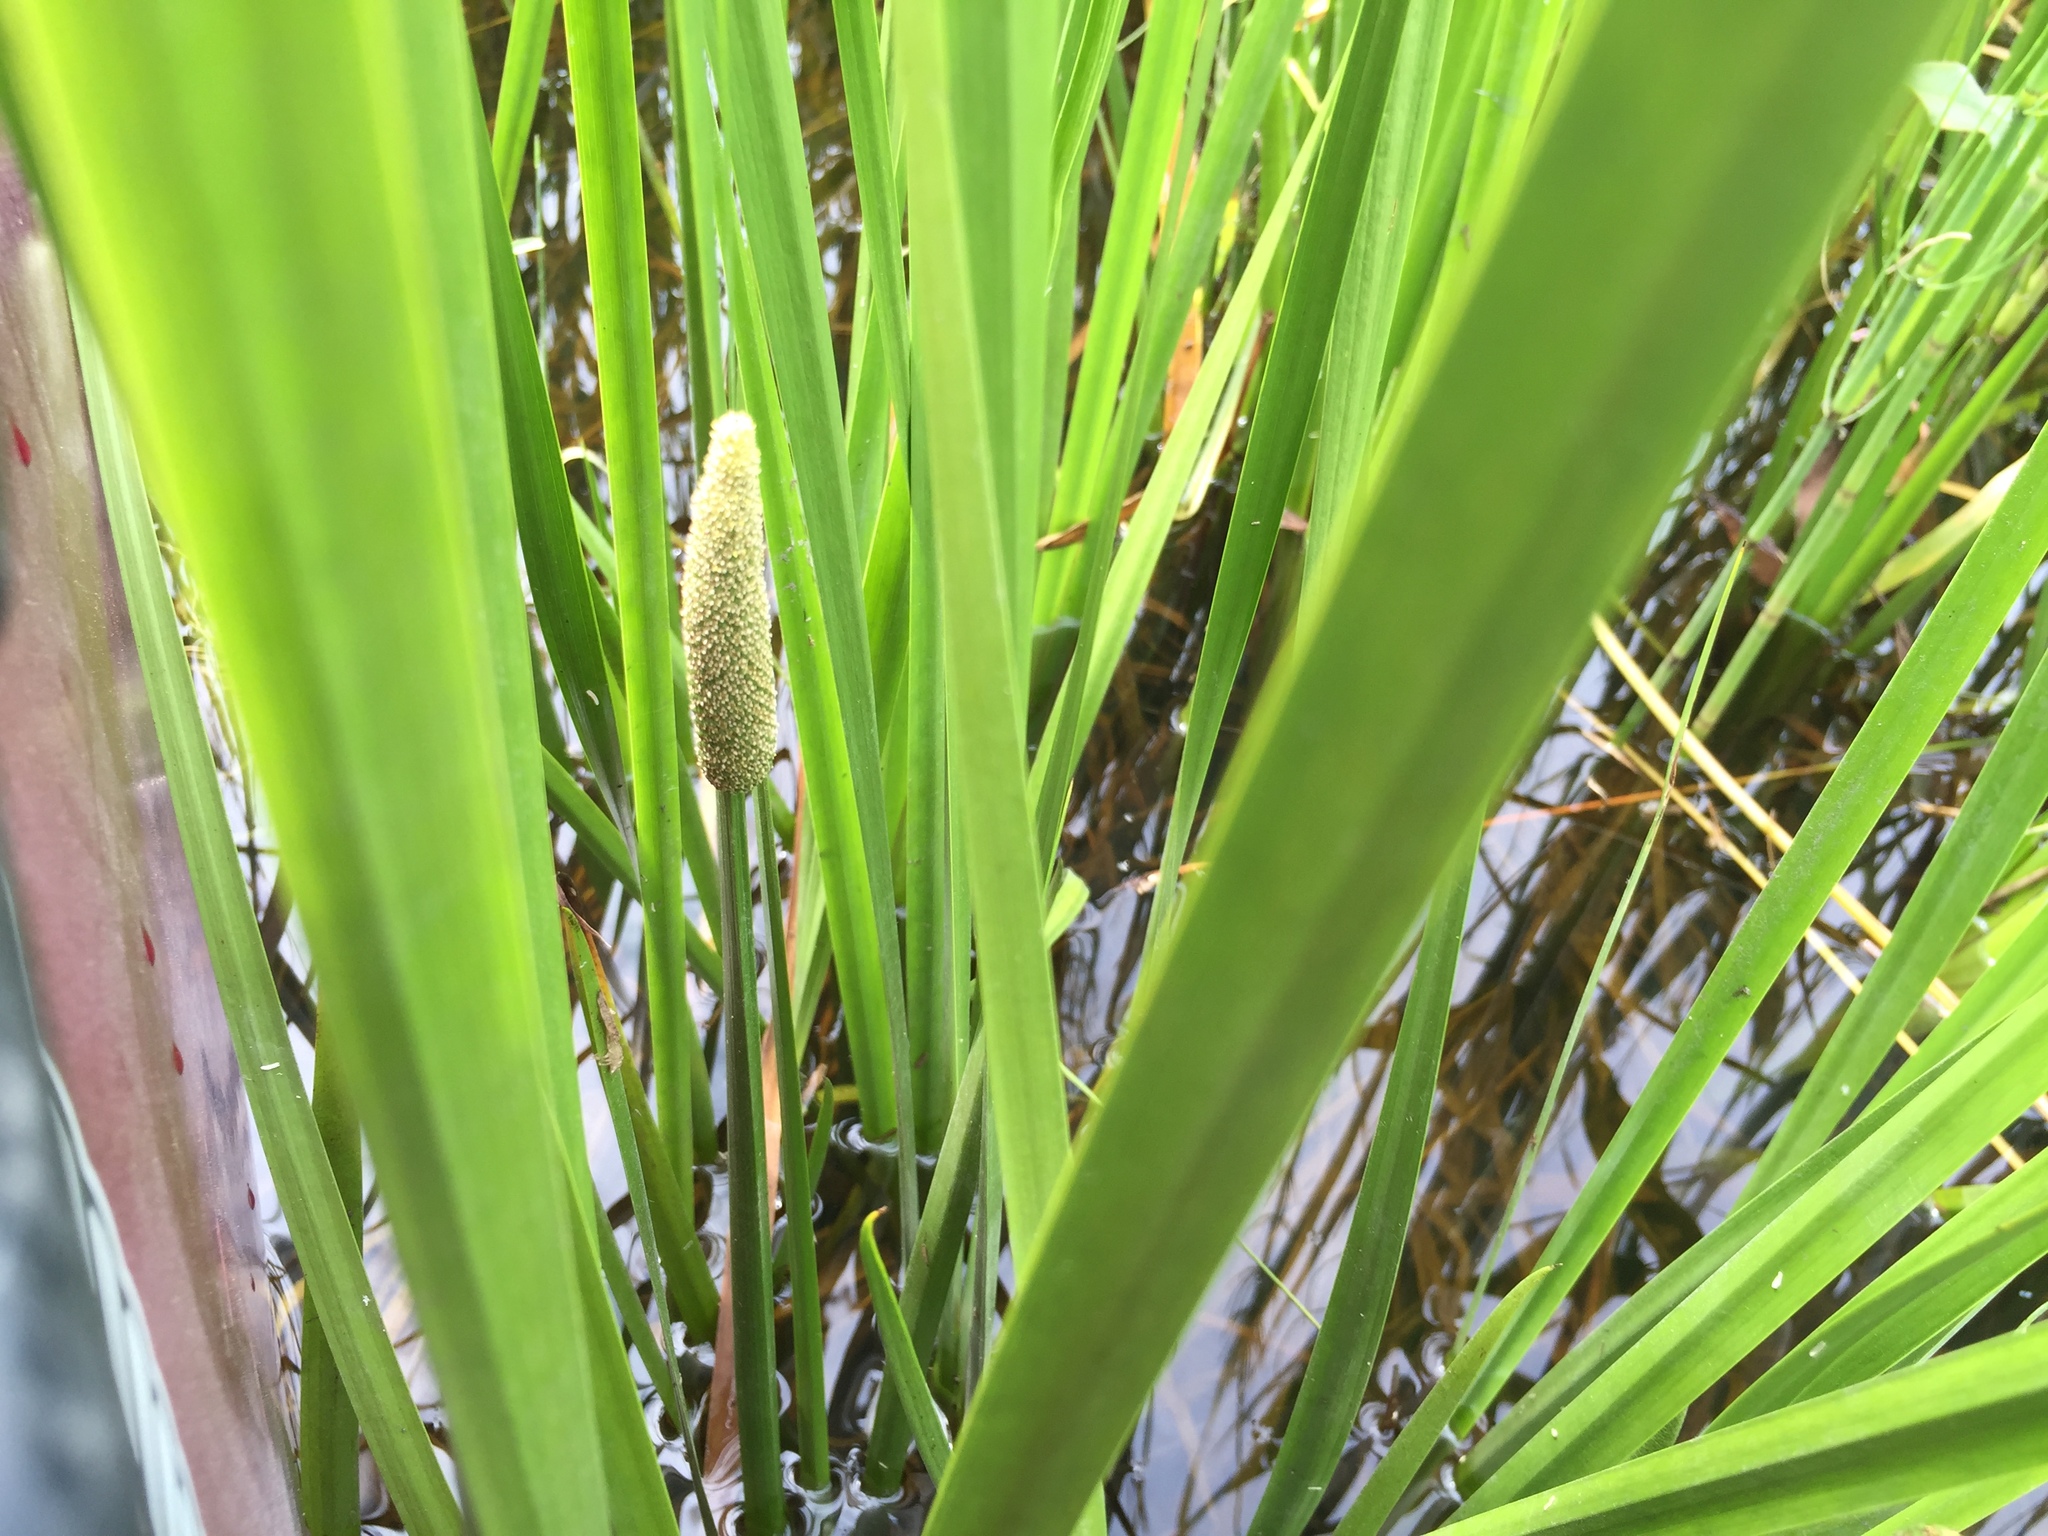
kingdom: Plantae
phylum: Tracheophyta
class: Liliopsida
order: Acorales
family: Acoraceae
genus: Acorus
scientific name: Acorus calamus
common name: Sweet-flag
